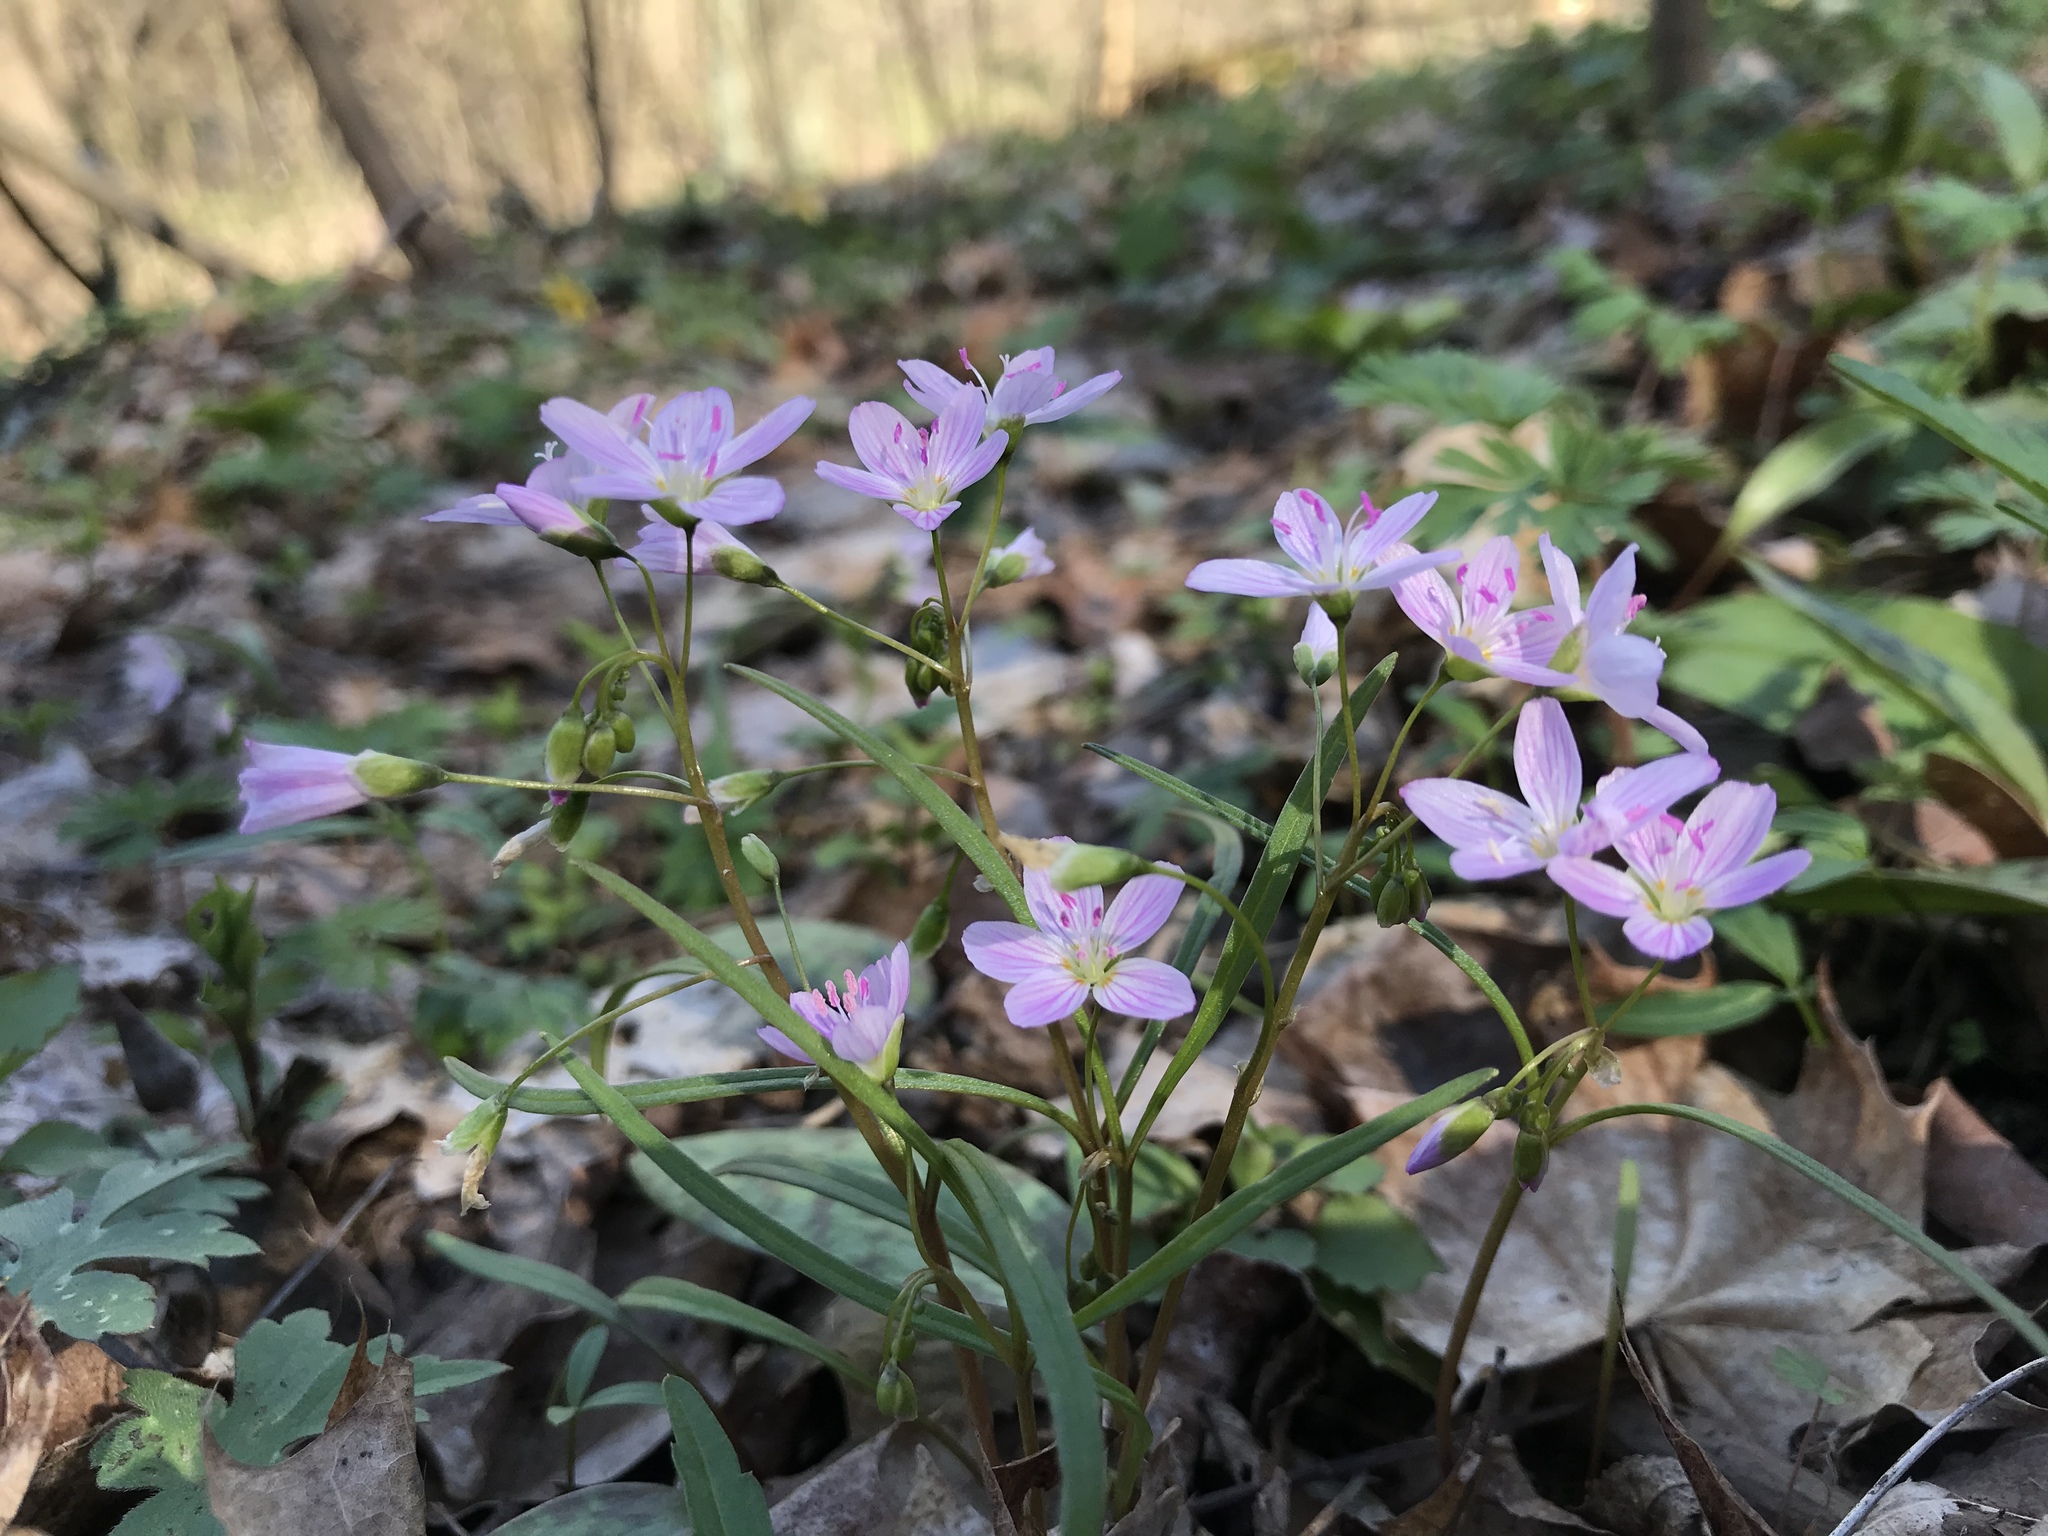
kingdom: Plantae
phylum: Tracheophyta
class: Magnoliopsida
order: Caryophyllales
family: Montiaceae
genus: Claytonia
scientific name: Claytonia virginica
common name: Virginia springbeauty
